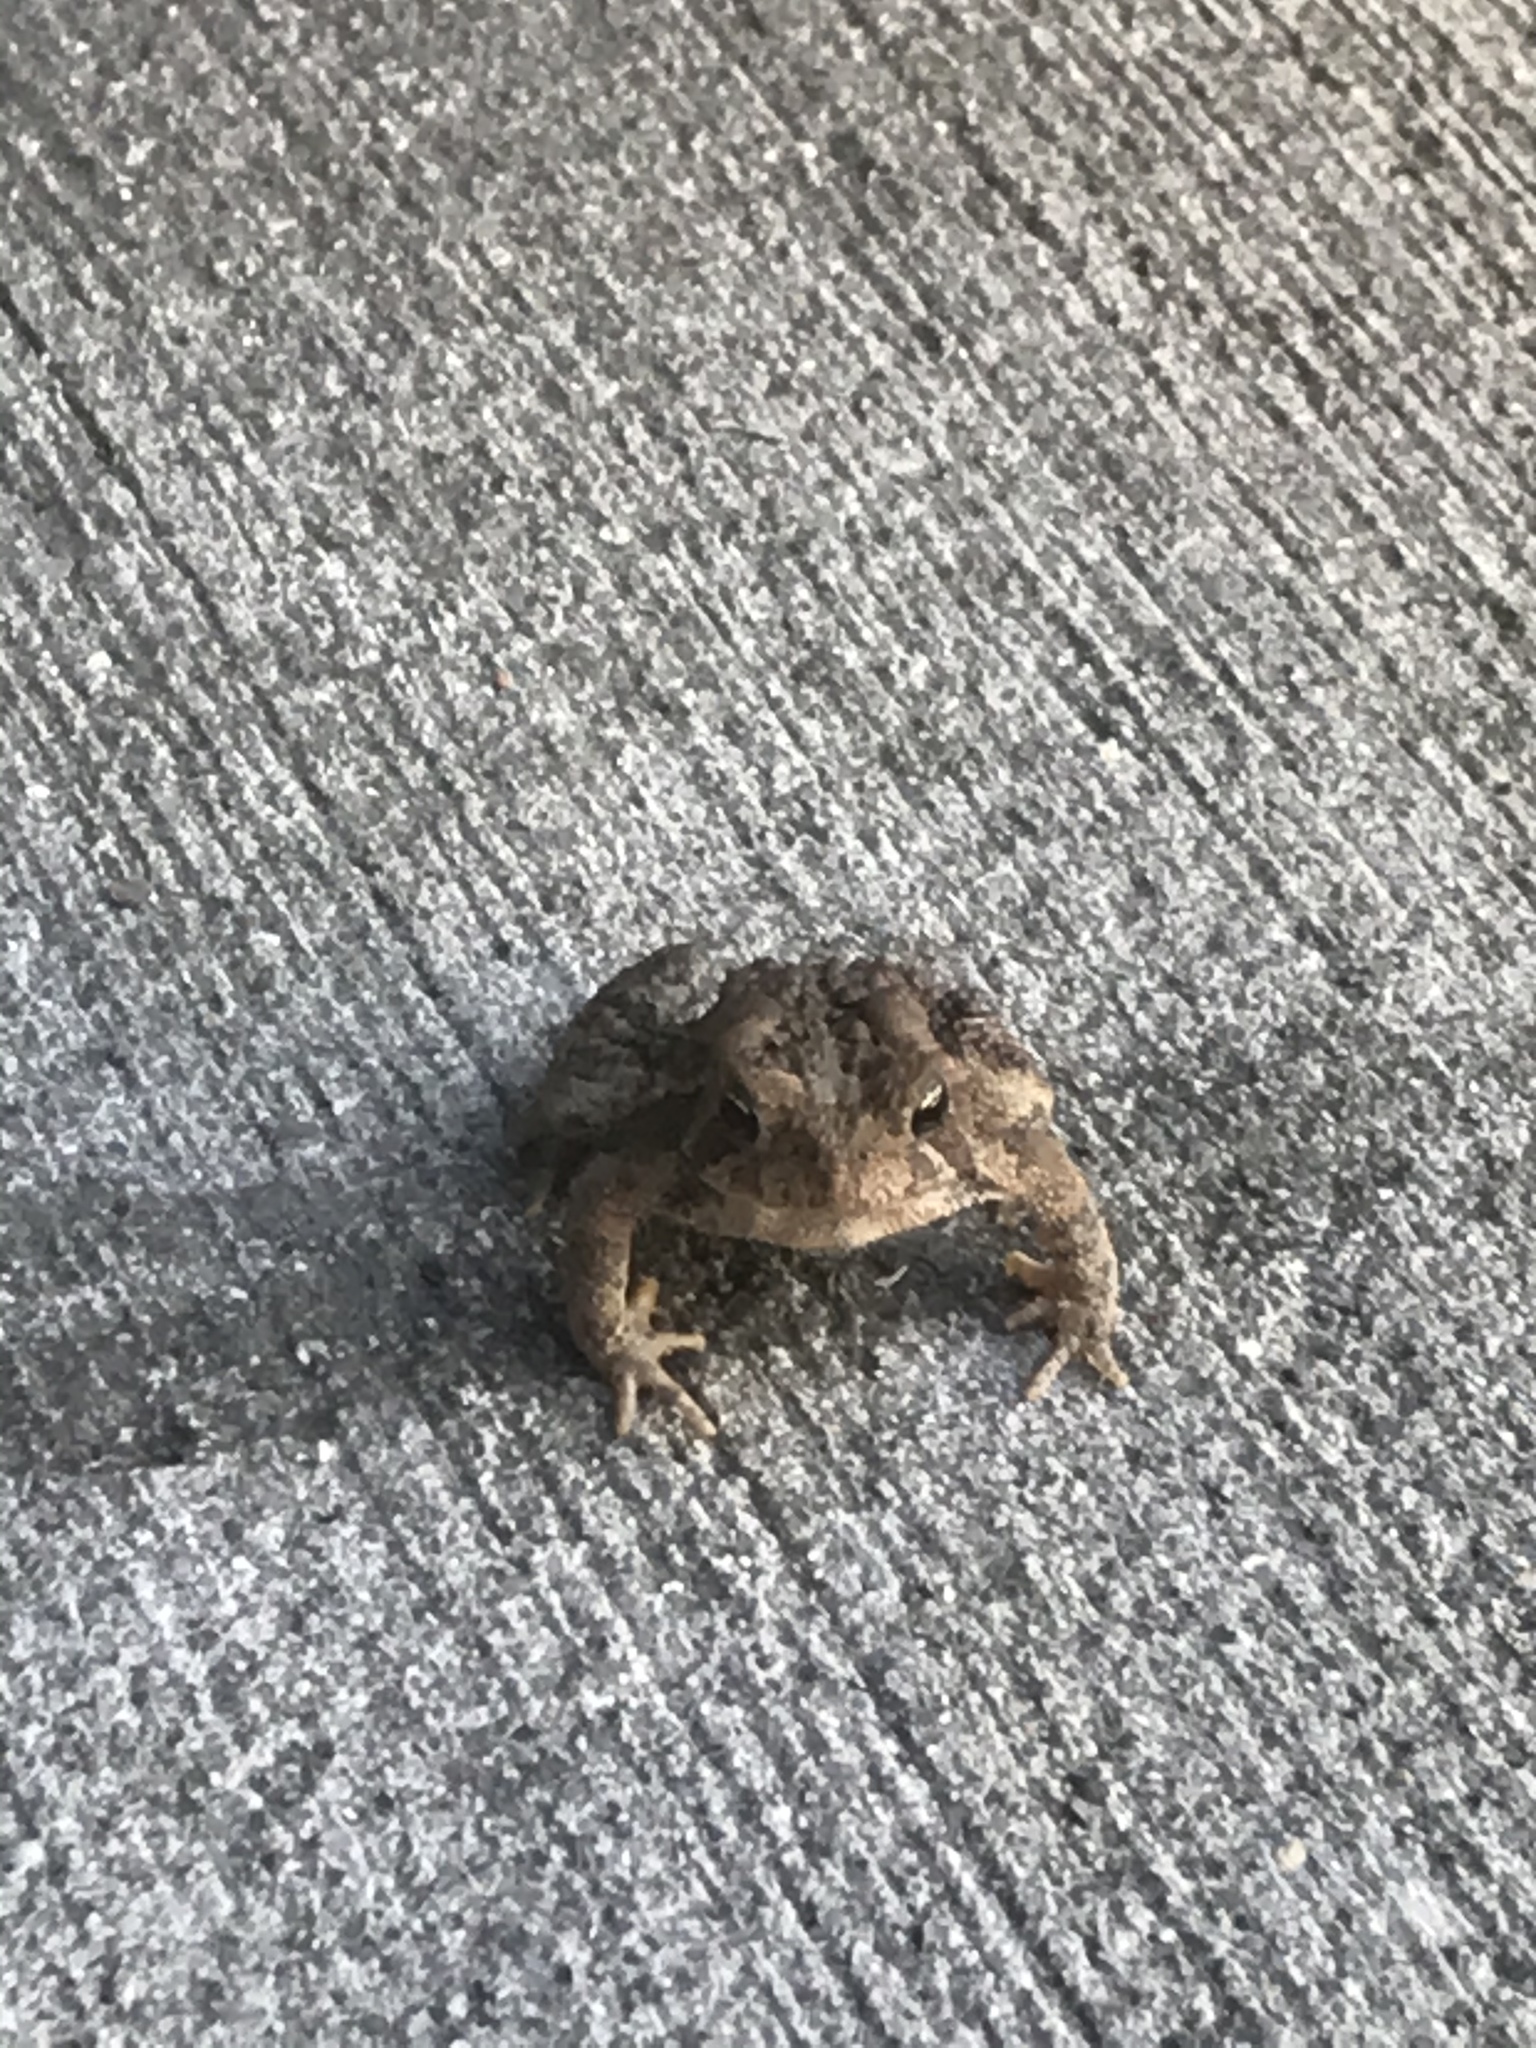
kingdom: Animalia
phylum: Chordata
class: Amphibia
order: Anura
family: Bufonidae
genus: Anaxyrus
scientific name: Anaxyrus americanus
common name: American toad
